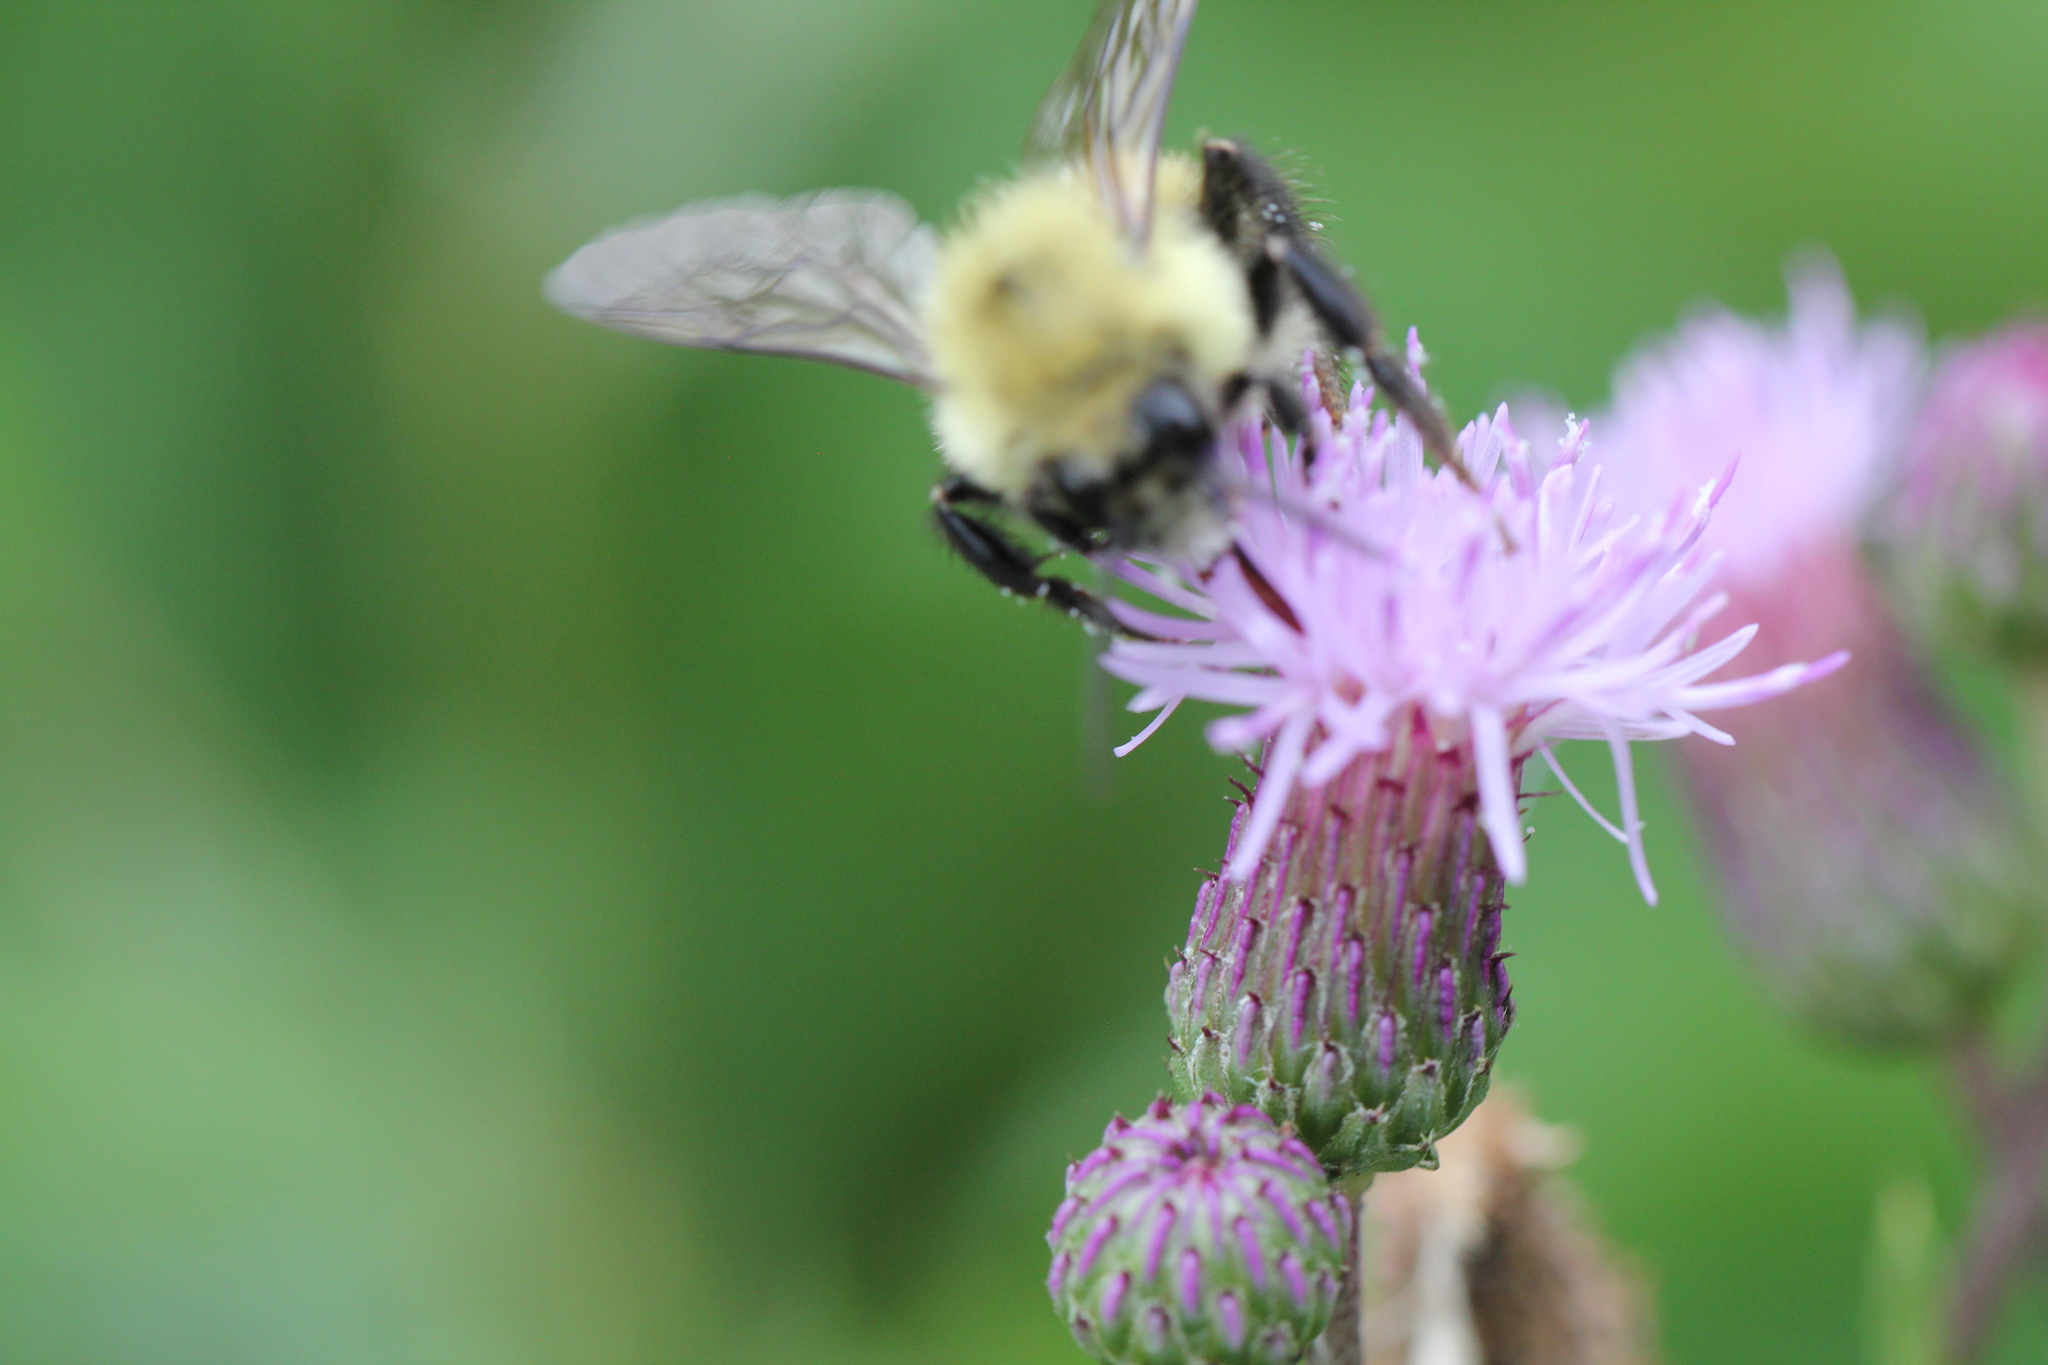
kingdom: Animalia
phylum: Arthropoda
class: Insecta
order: Hymenoptera
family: Apidae
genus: Bombus
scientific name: Bombus bimaculatus
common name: Two-spotted bumble bee
